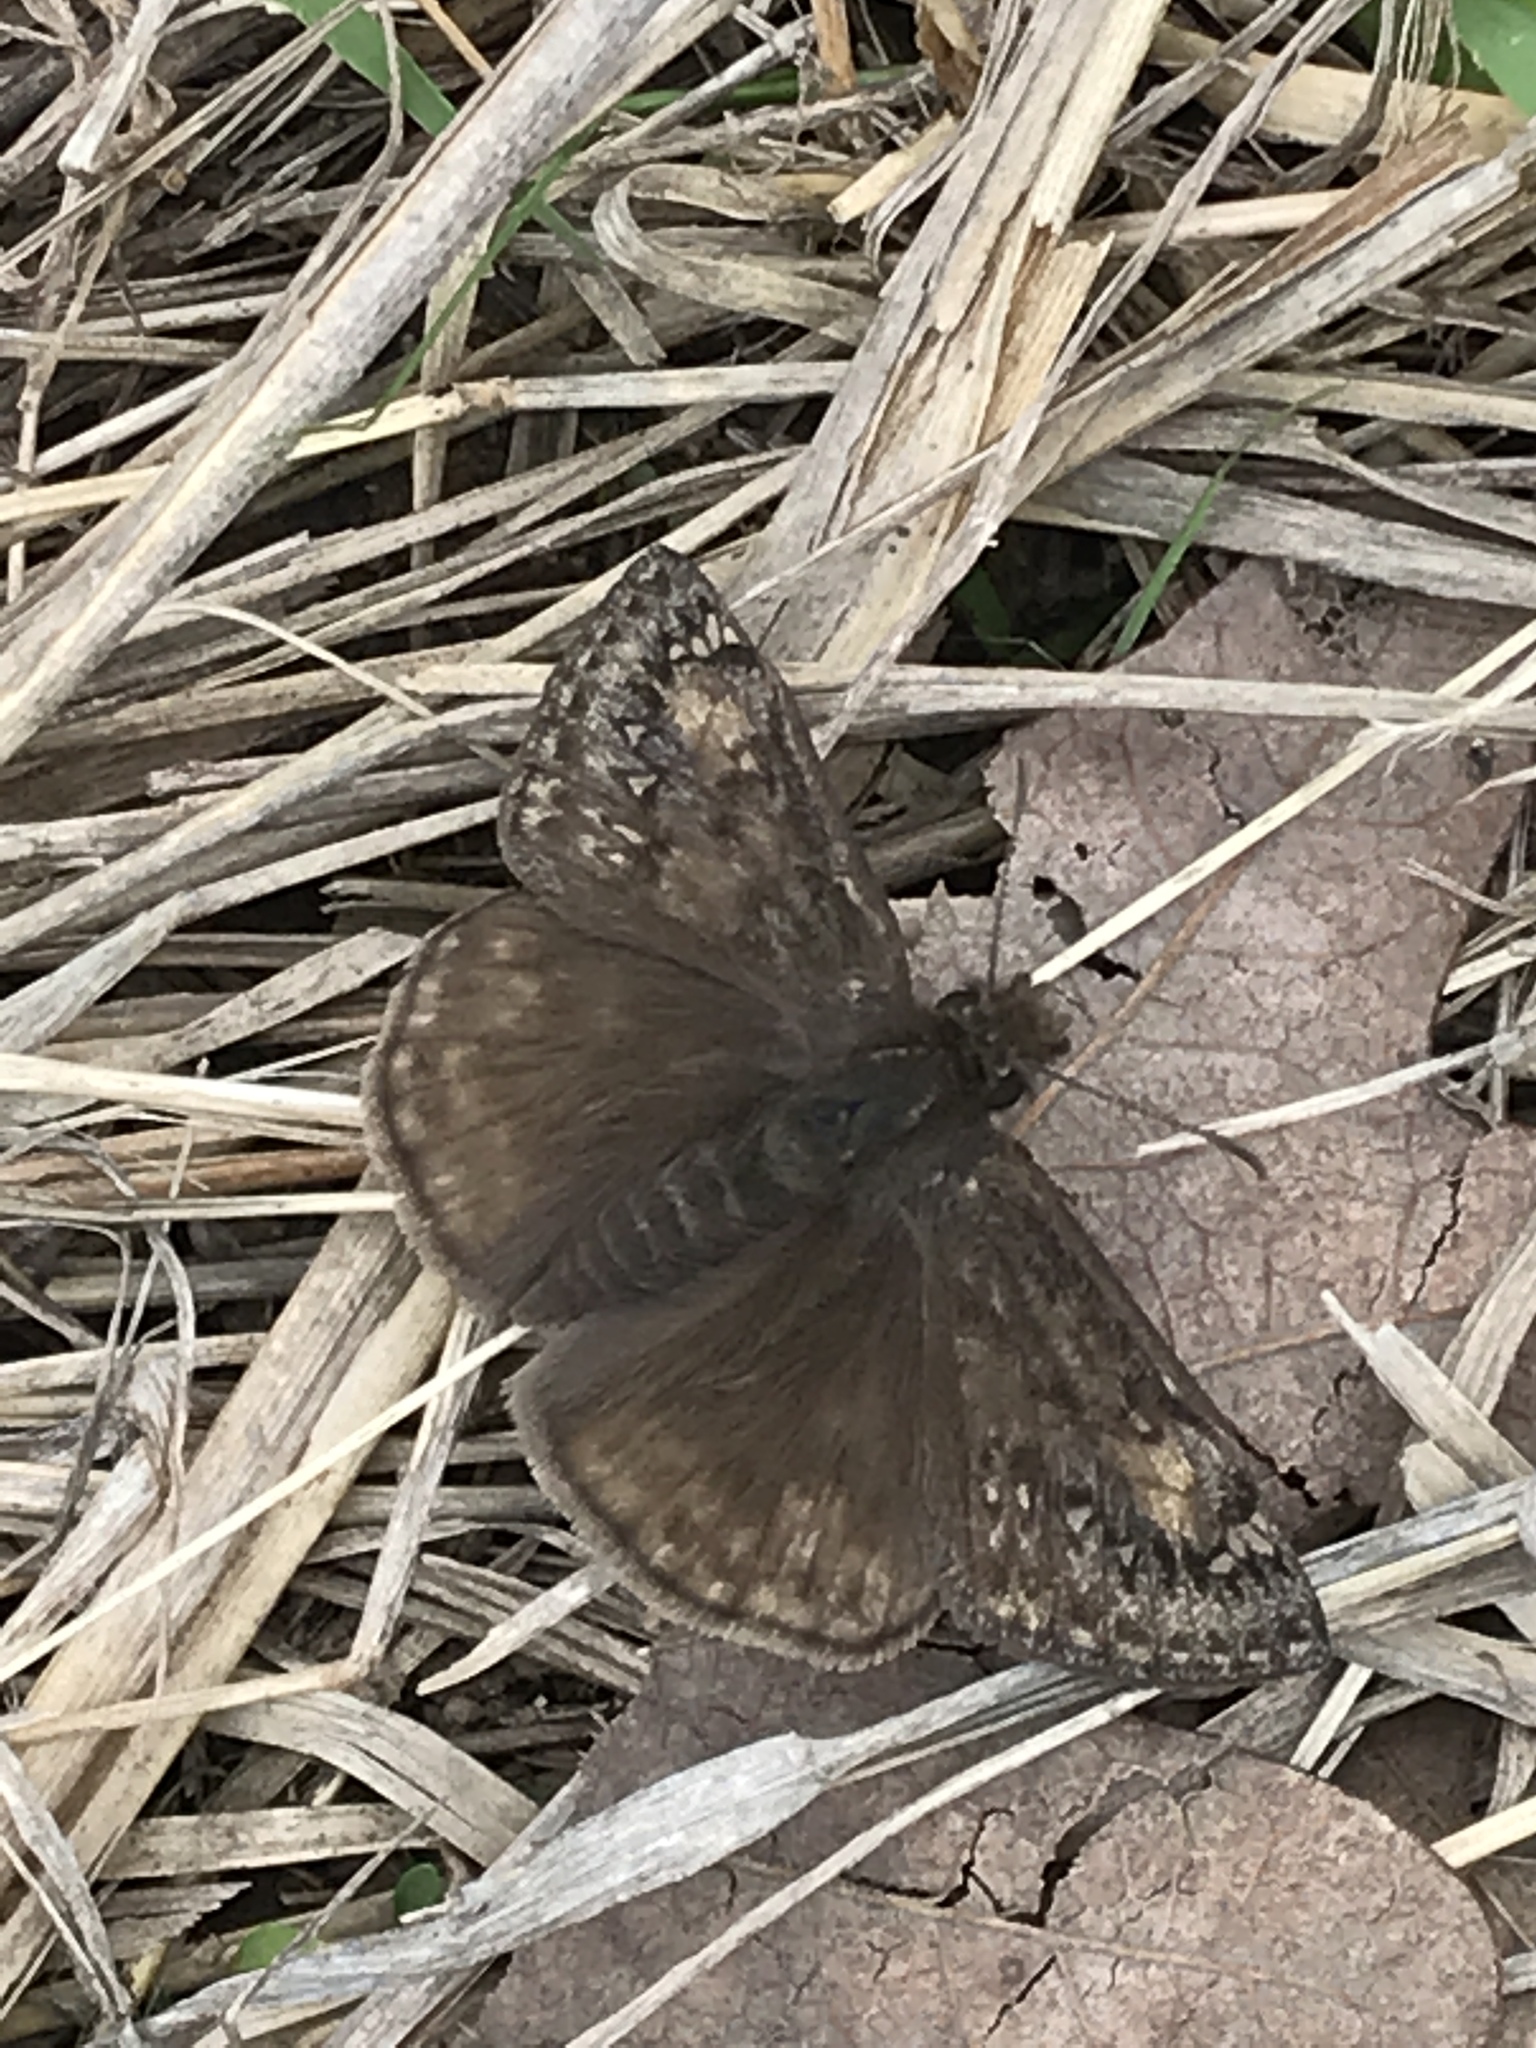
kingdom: Animalia
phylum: Arthropoda
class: Insecta
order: Lepidoptera
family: Hesperiidae
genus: Erynnis
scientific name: Erynnis juvenalis
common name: Juvenal's duskywing
